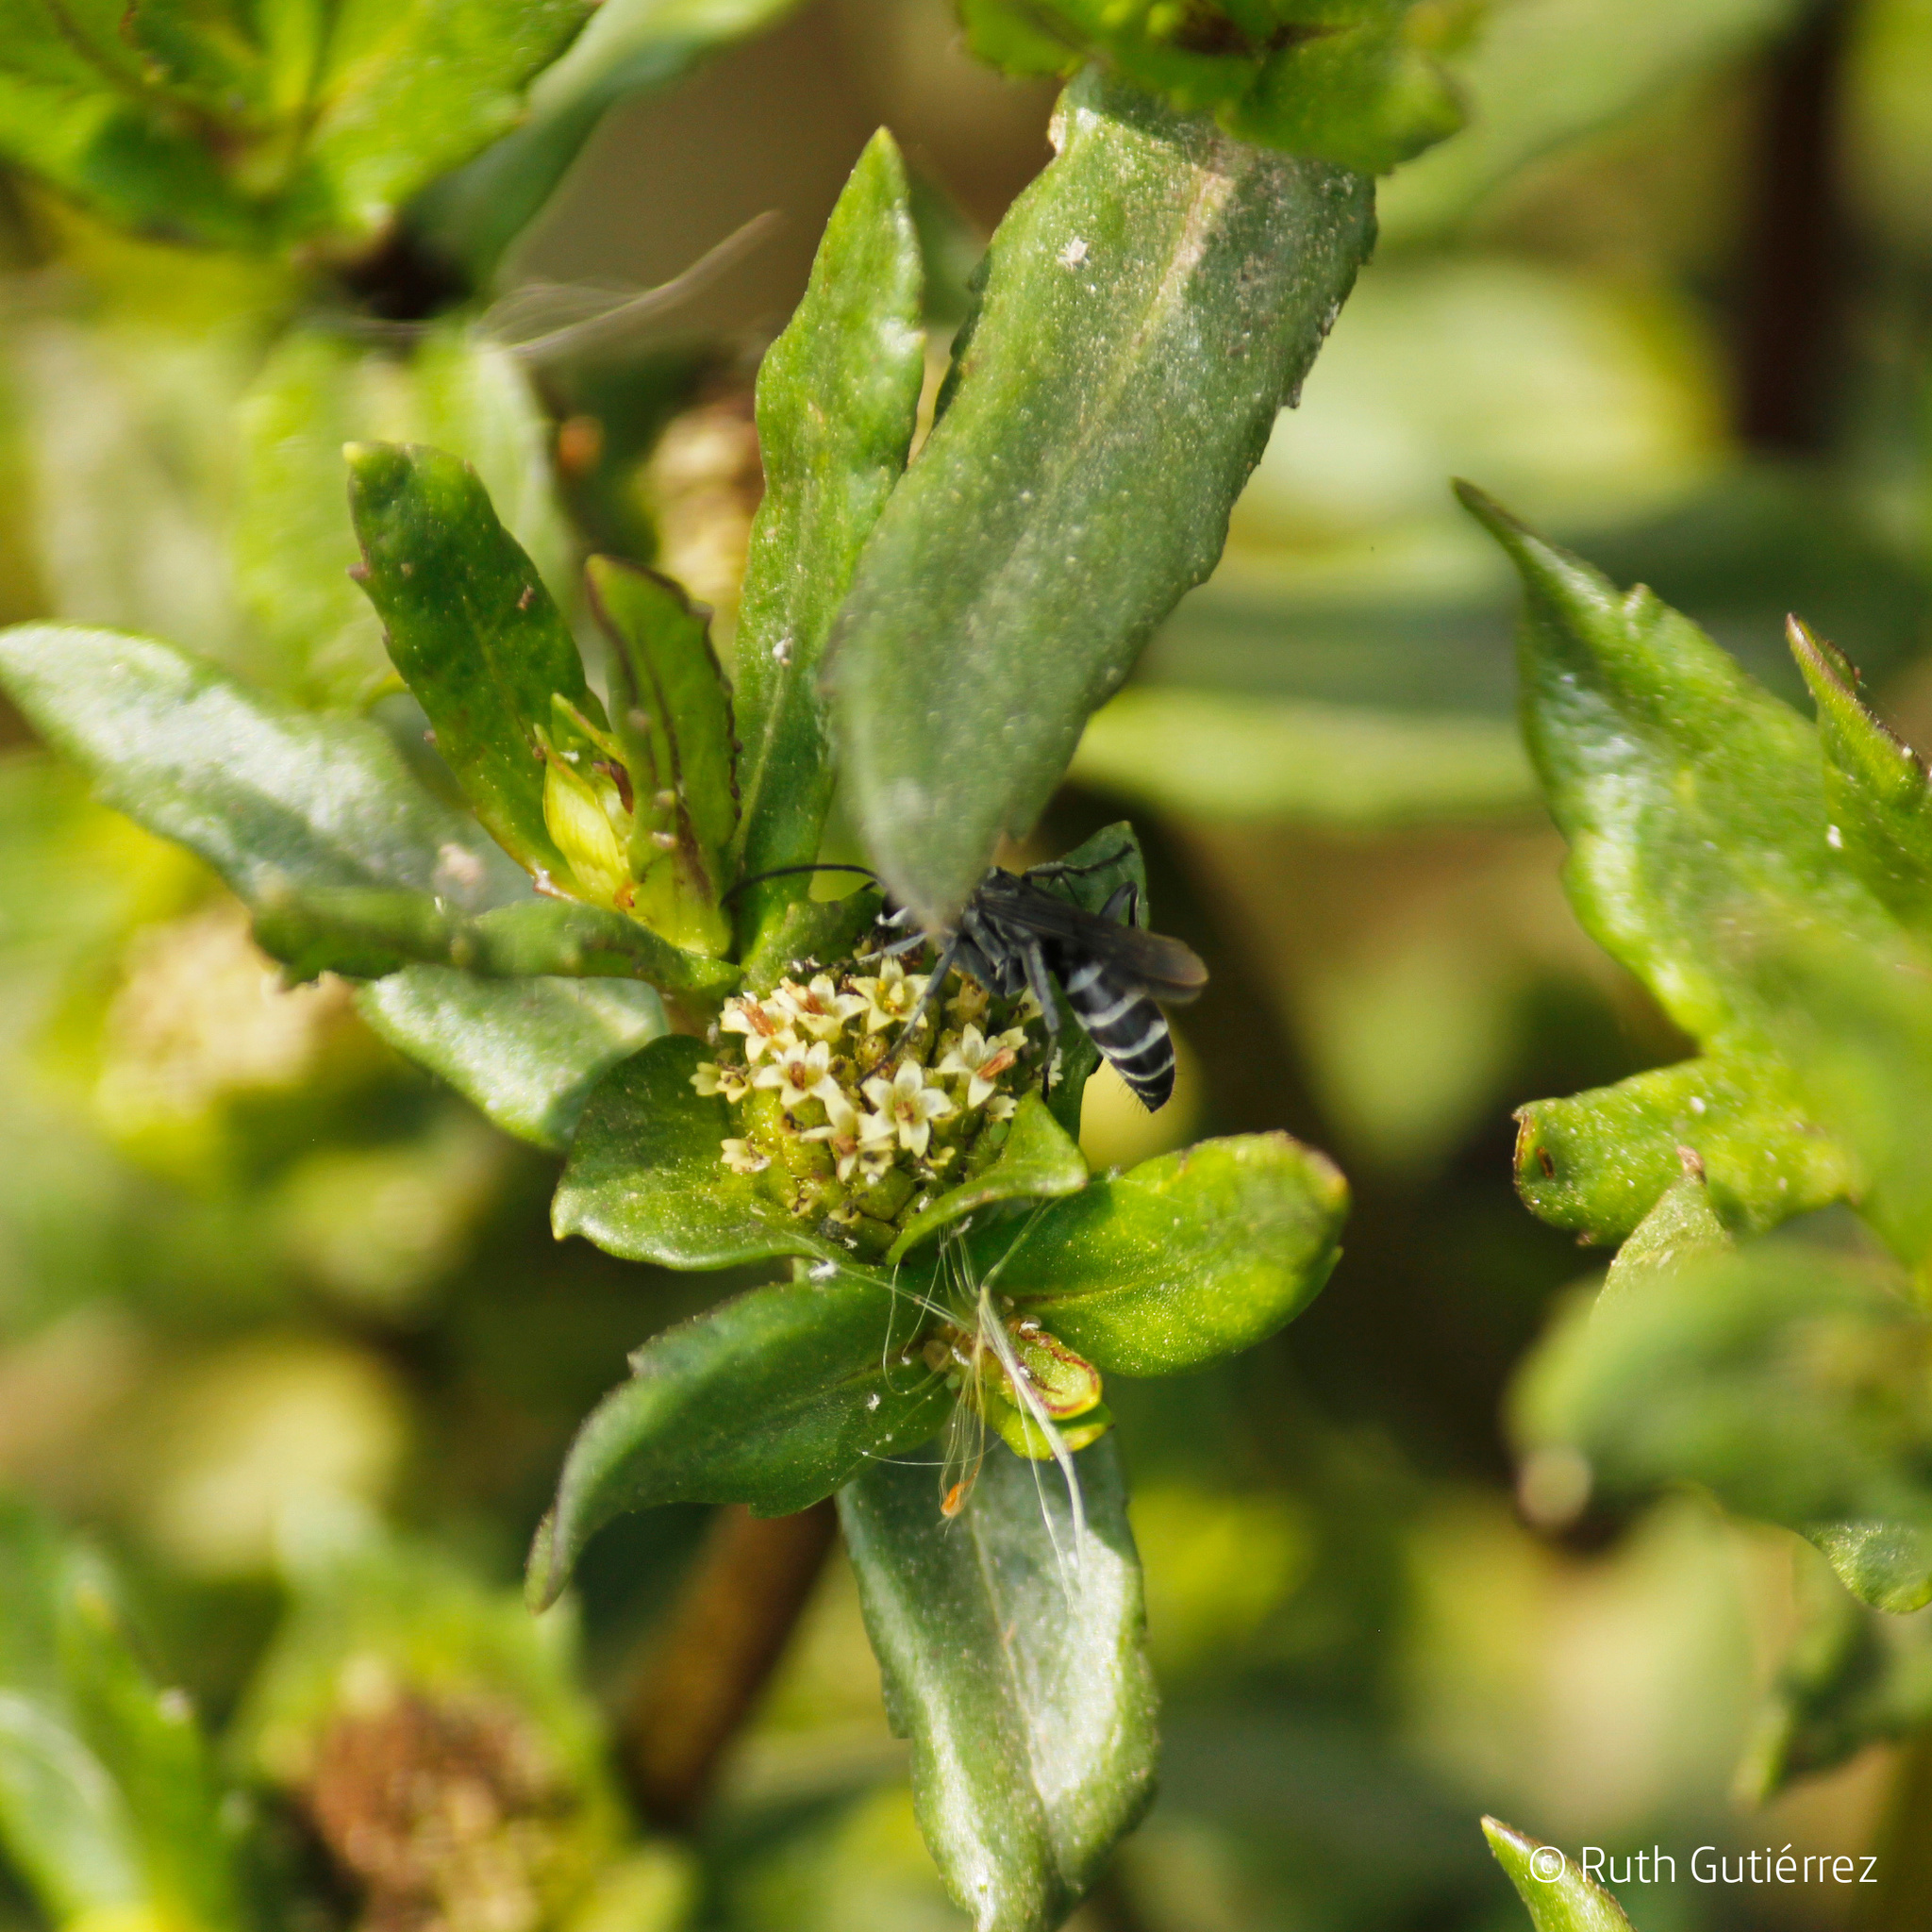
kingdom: Animalia
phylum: Arthropoda
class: Insecta
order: Hymenoptera
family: Pompilidae
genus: Aporinellus
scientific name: Aporinellus
